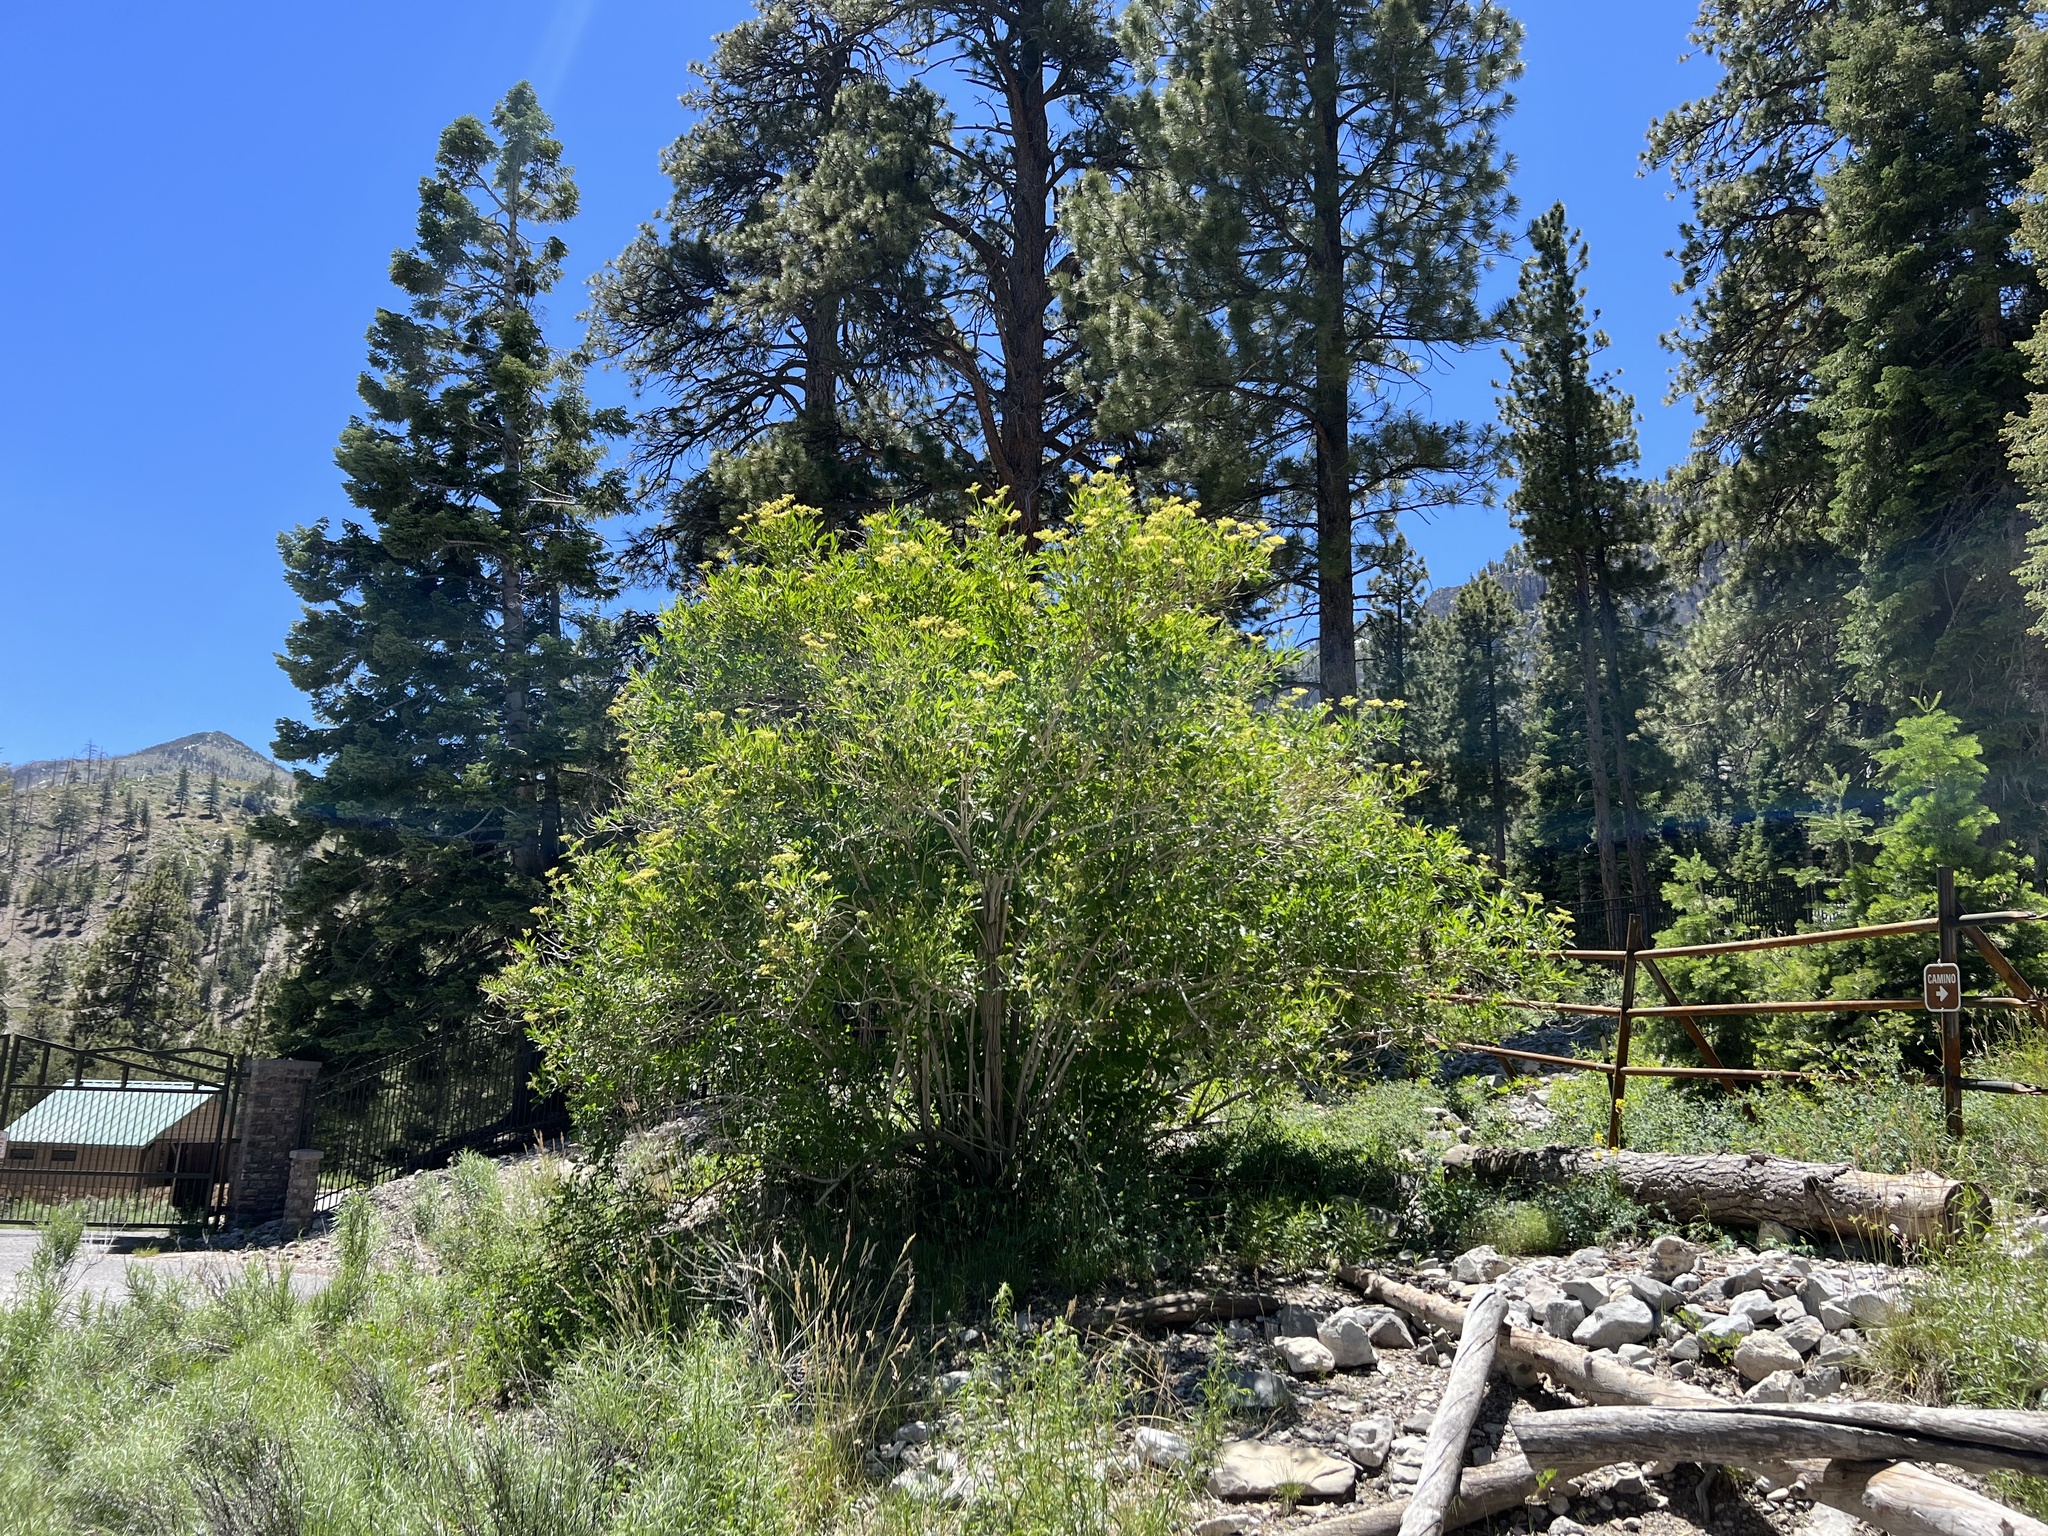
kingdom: Plantae
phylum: Tracheophyta
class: Magnoliopsida
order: Dipsacales
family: Viburnaceae
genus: Sambucus
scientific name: Sambucus cerulea
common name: Blue elder
